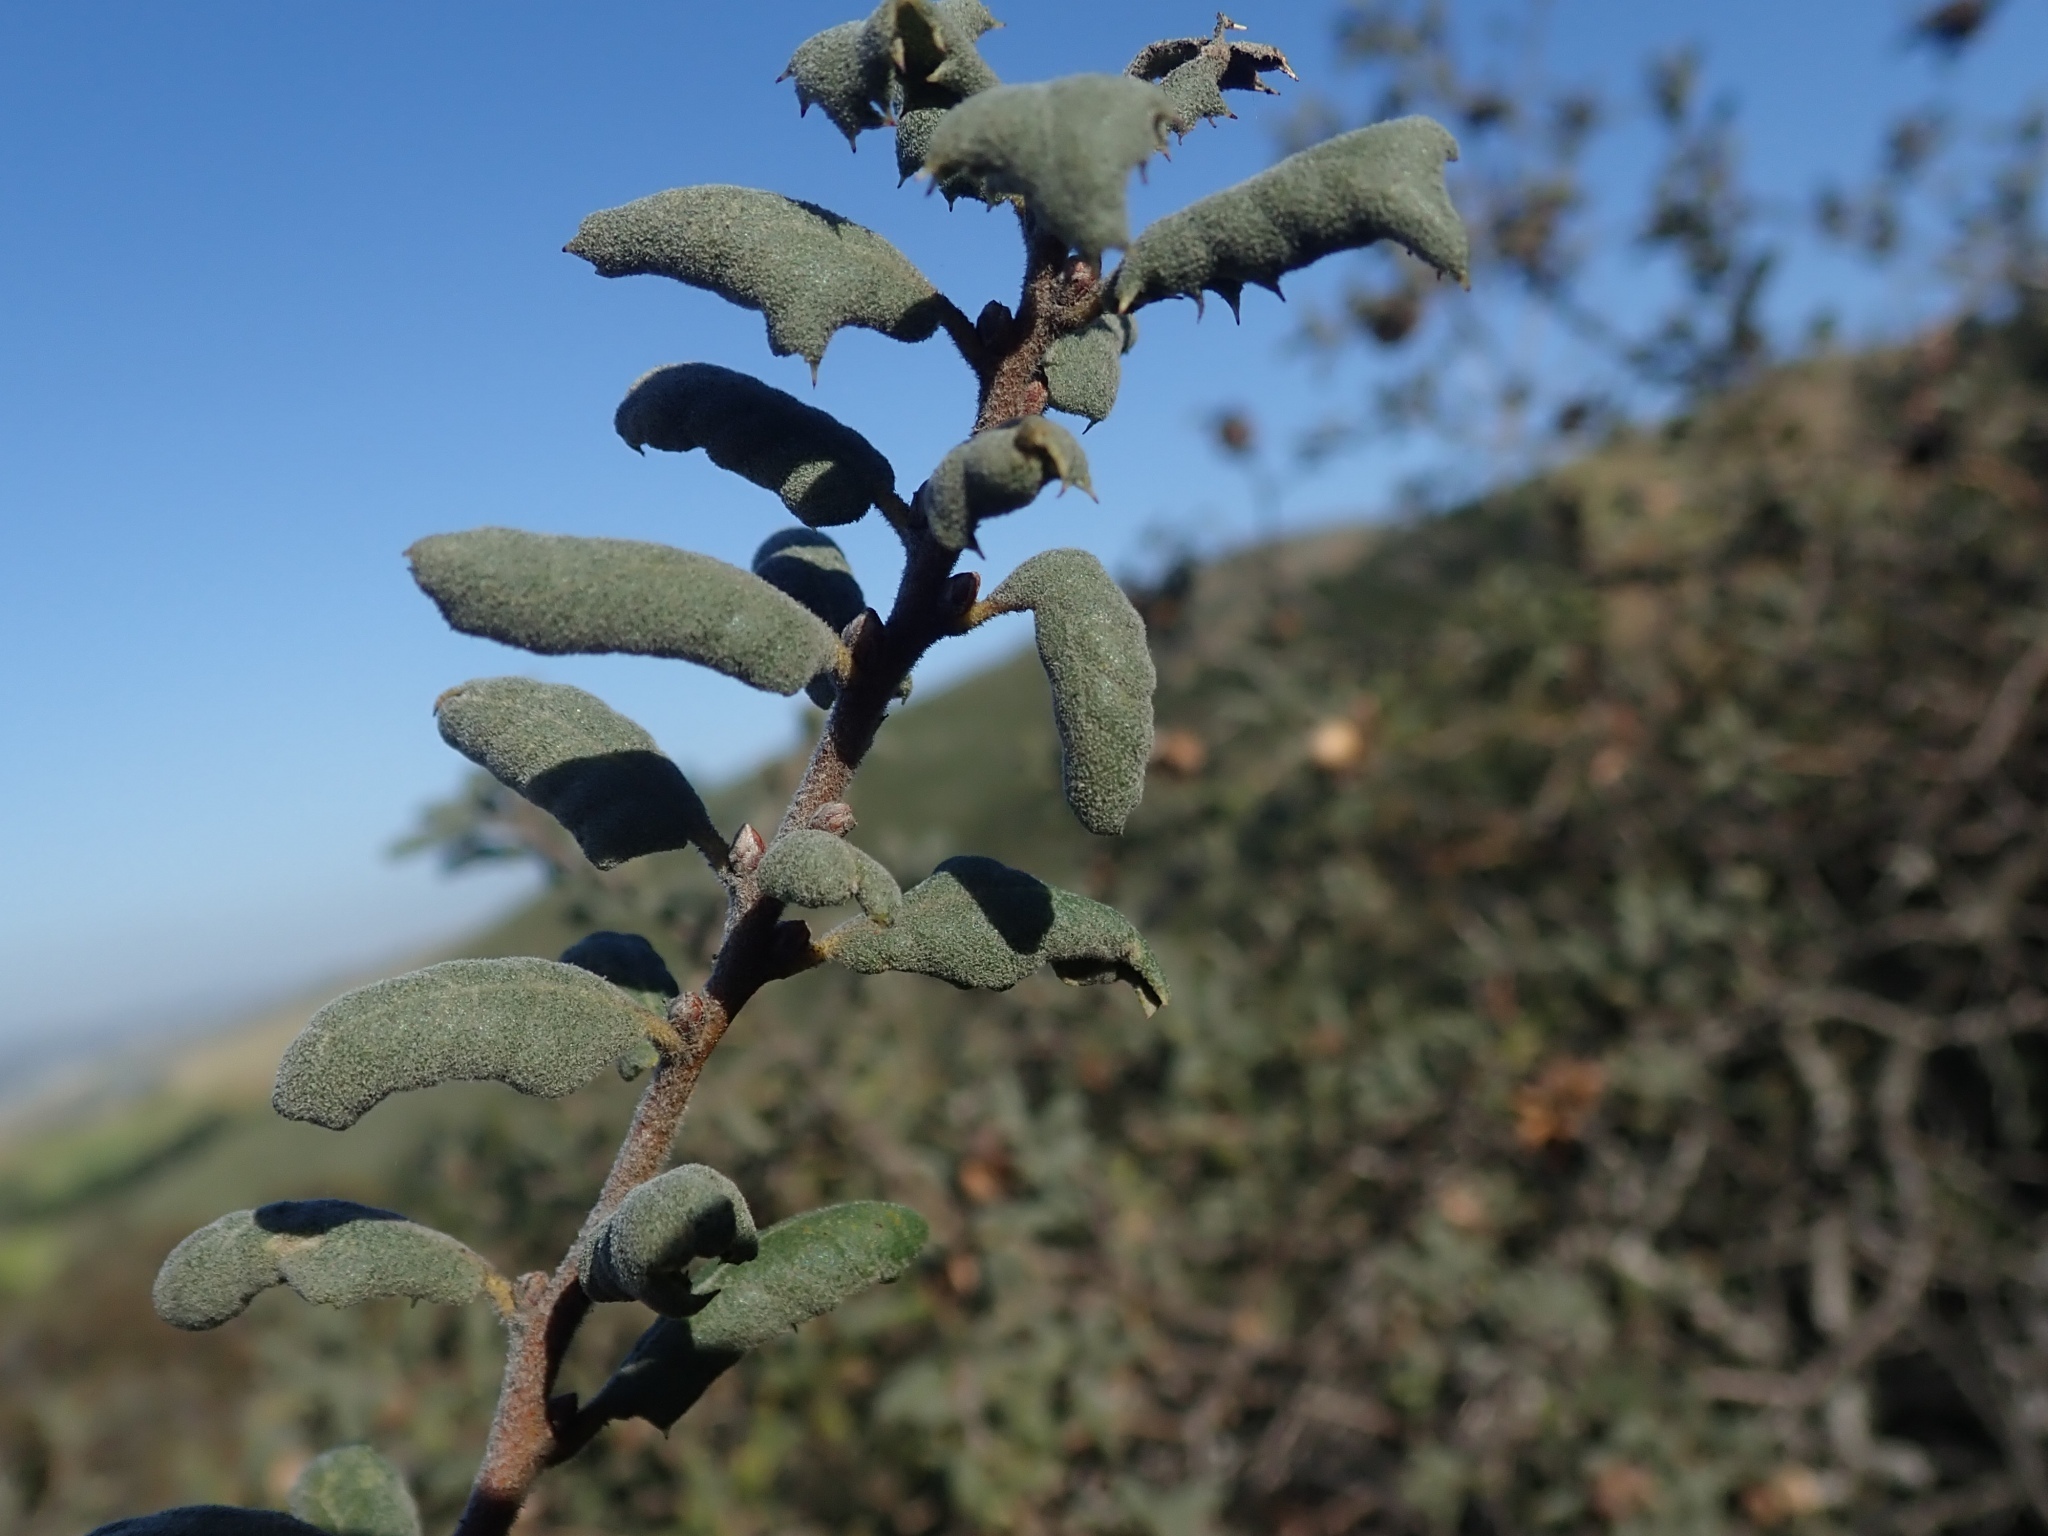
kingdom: Plantae
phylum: Tracheophyta
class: Magnoliopsida
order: Fagales
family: Fagaceae
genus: Quercus
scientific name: Quercus durata
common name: Leather oak
